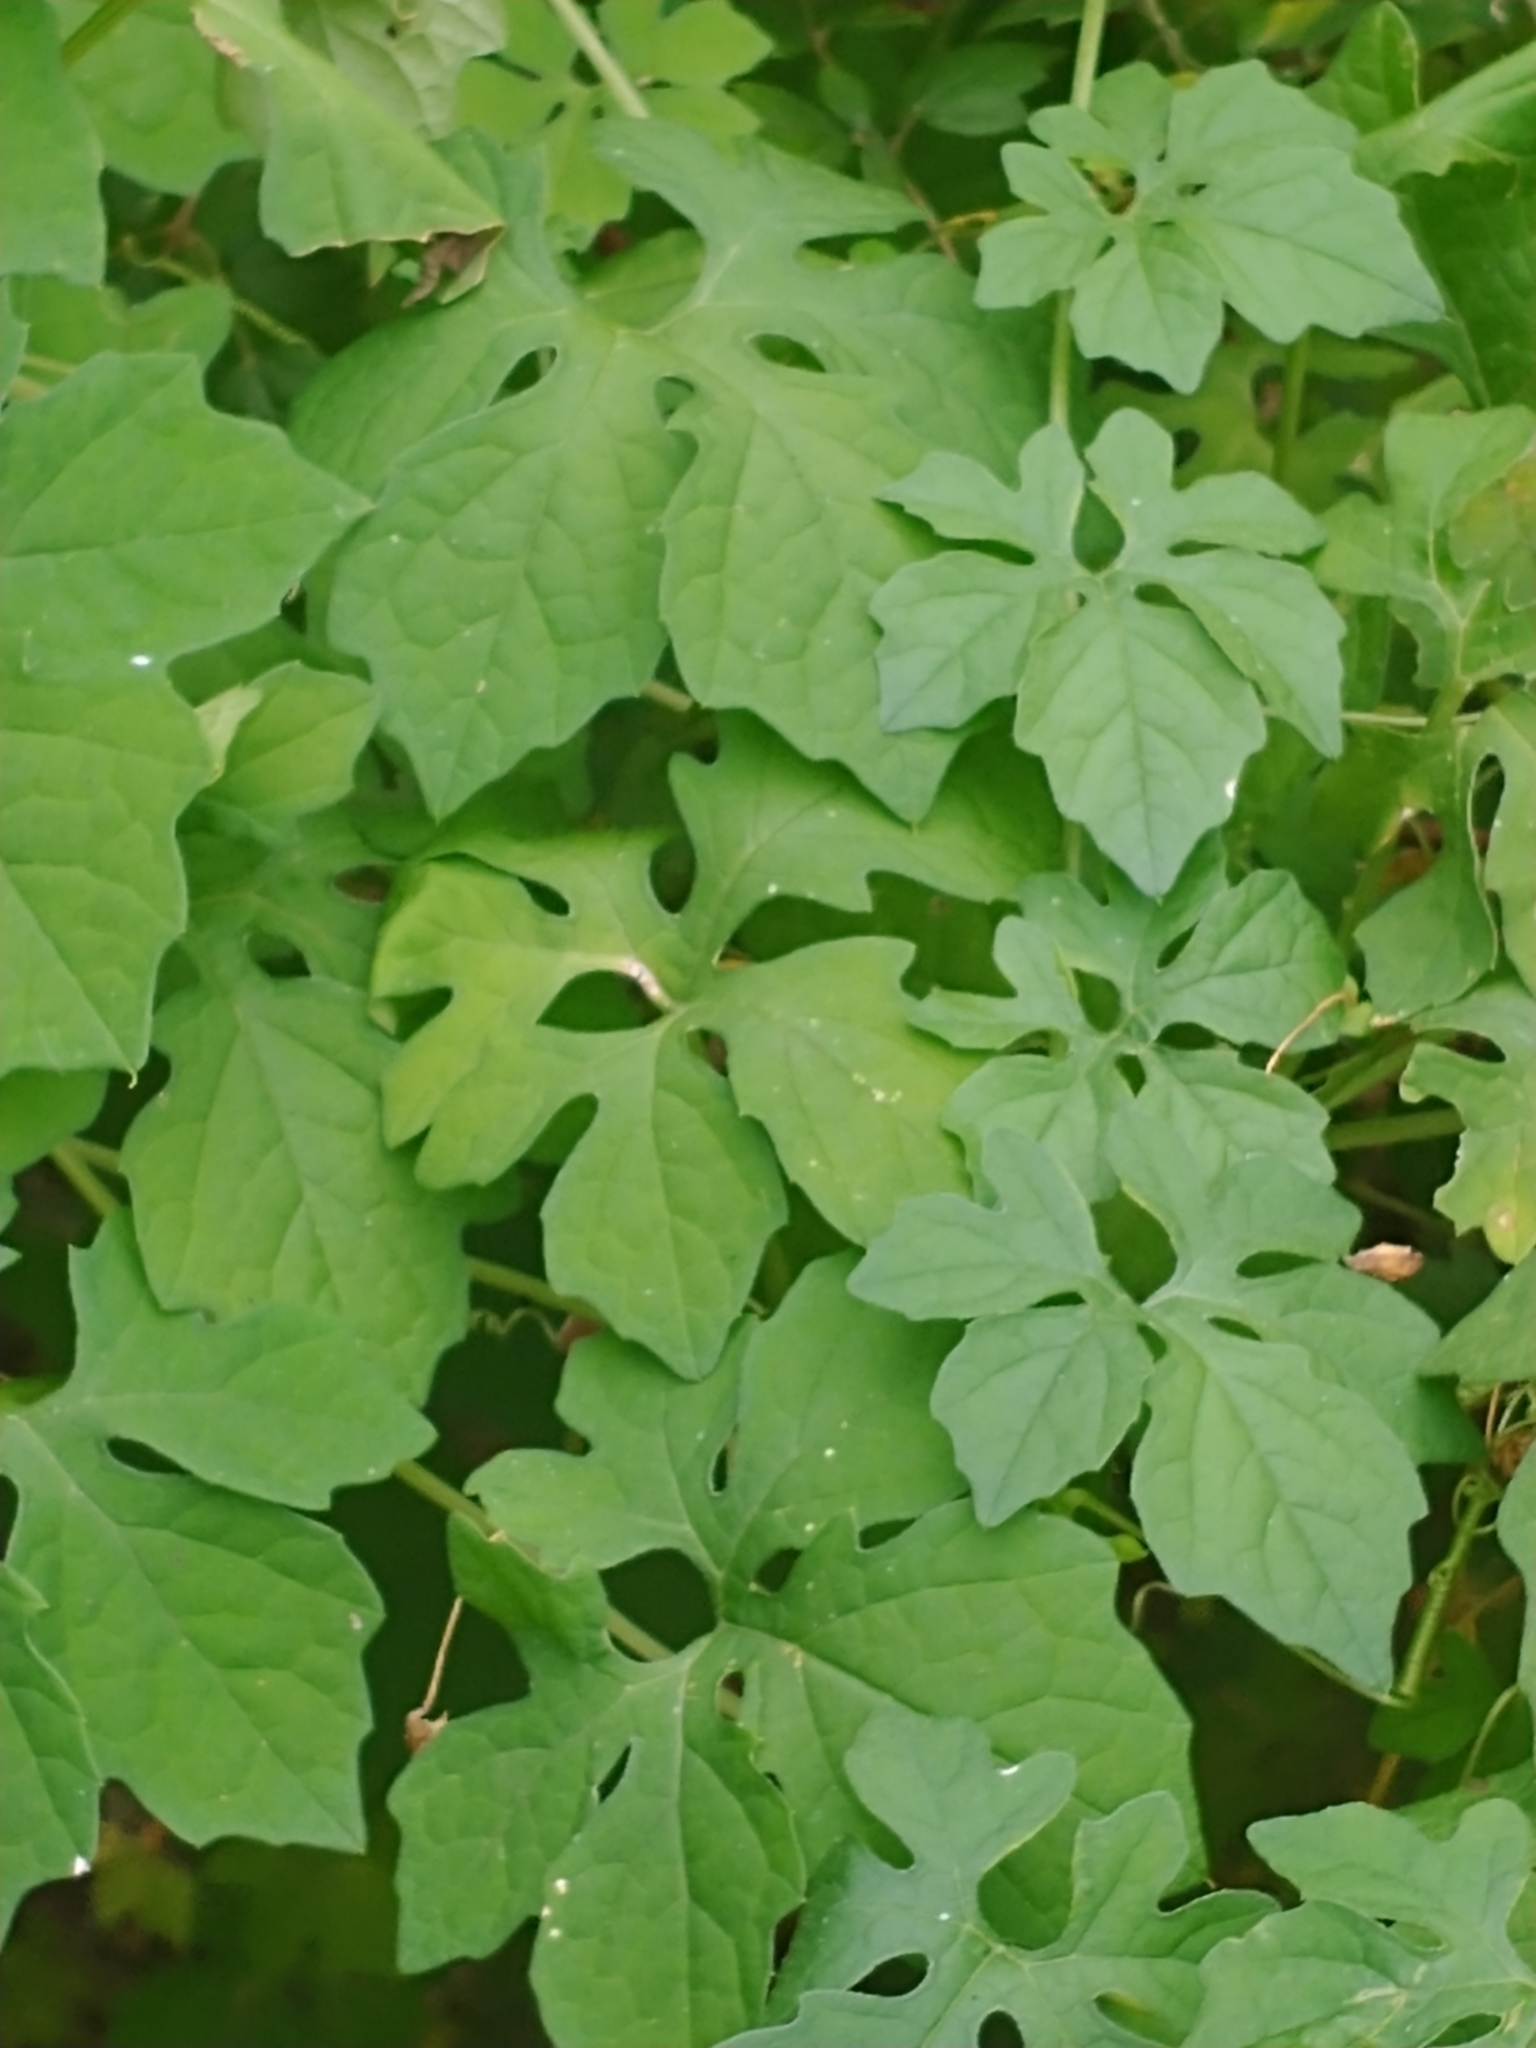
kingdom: Plantae
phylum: Tracheophyta
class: Magnoliopsida
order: Cucurbitales
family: Cucurbitaceae
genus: Momordica
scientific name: Momordica charantia
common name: Balsampear
